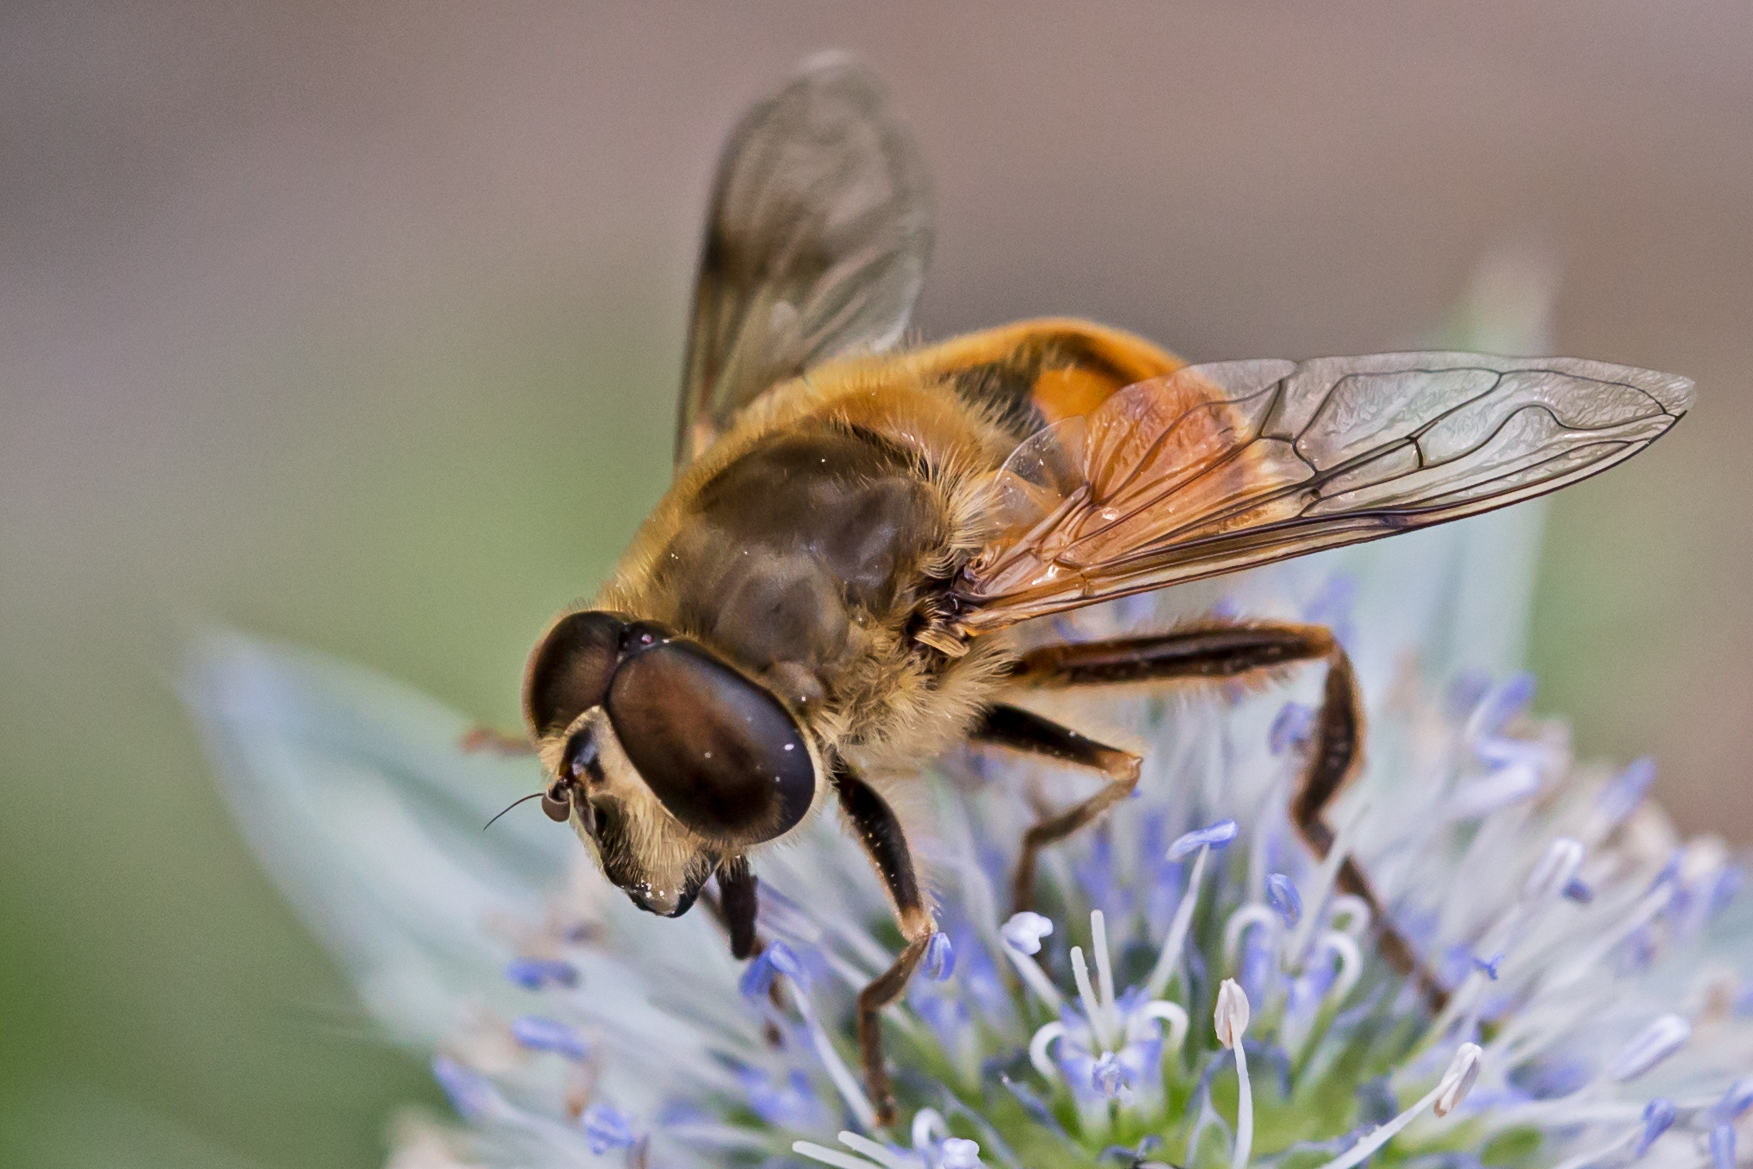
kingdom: Animalia
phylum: Arthropoda
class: Insecta
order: Diptera
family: Syrphidae
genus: Eristalis
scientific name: Eristalis tenax
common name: Drone fly
